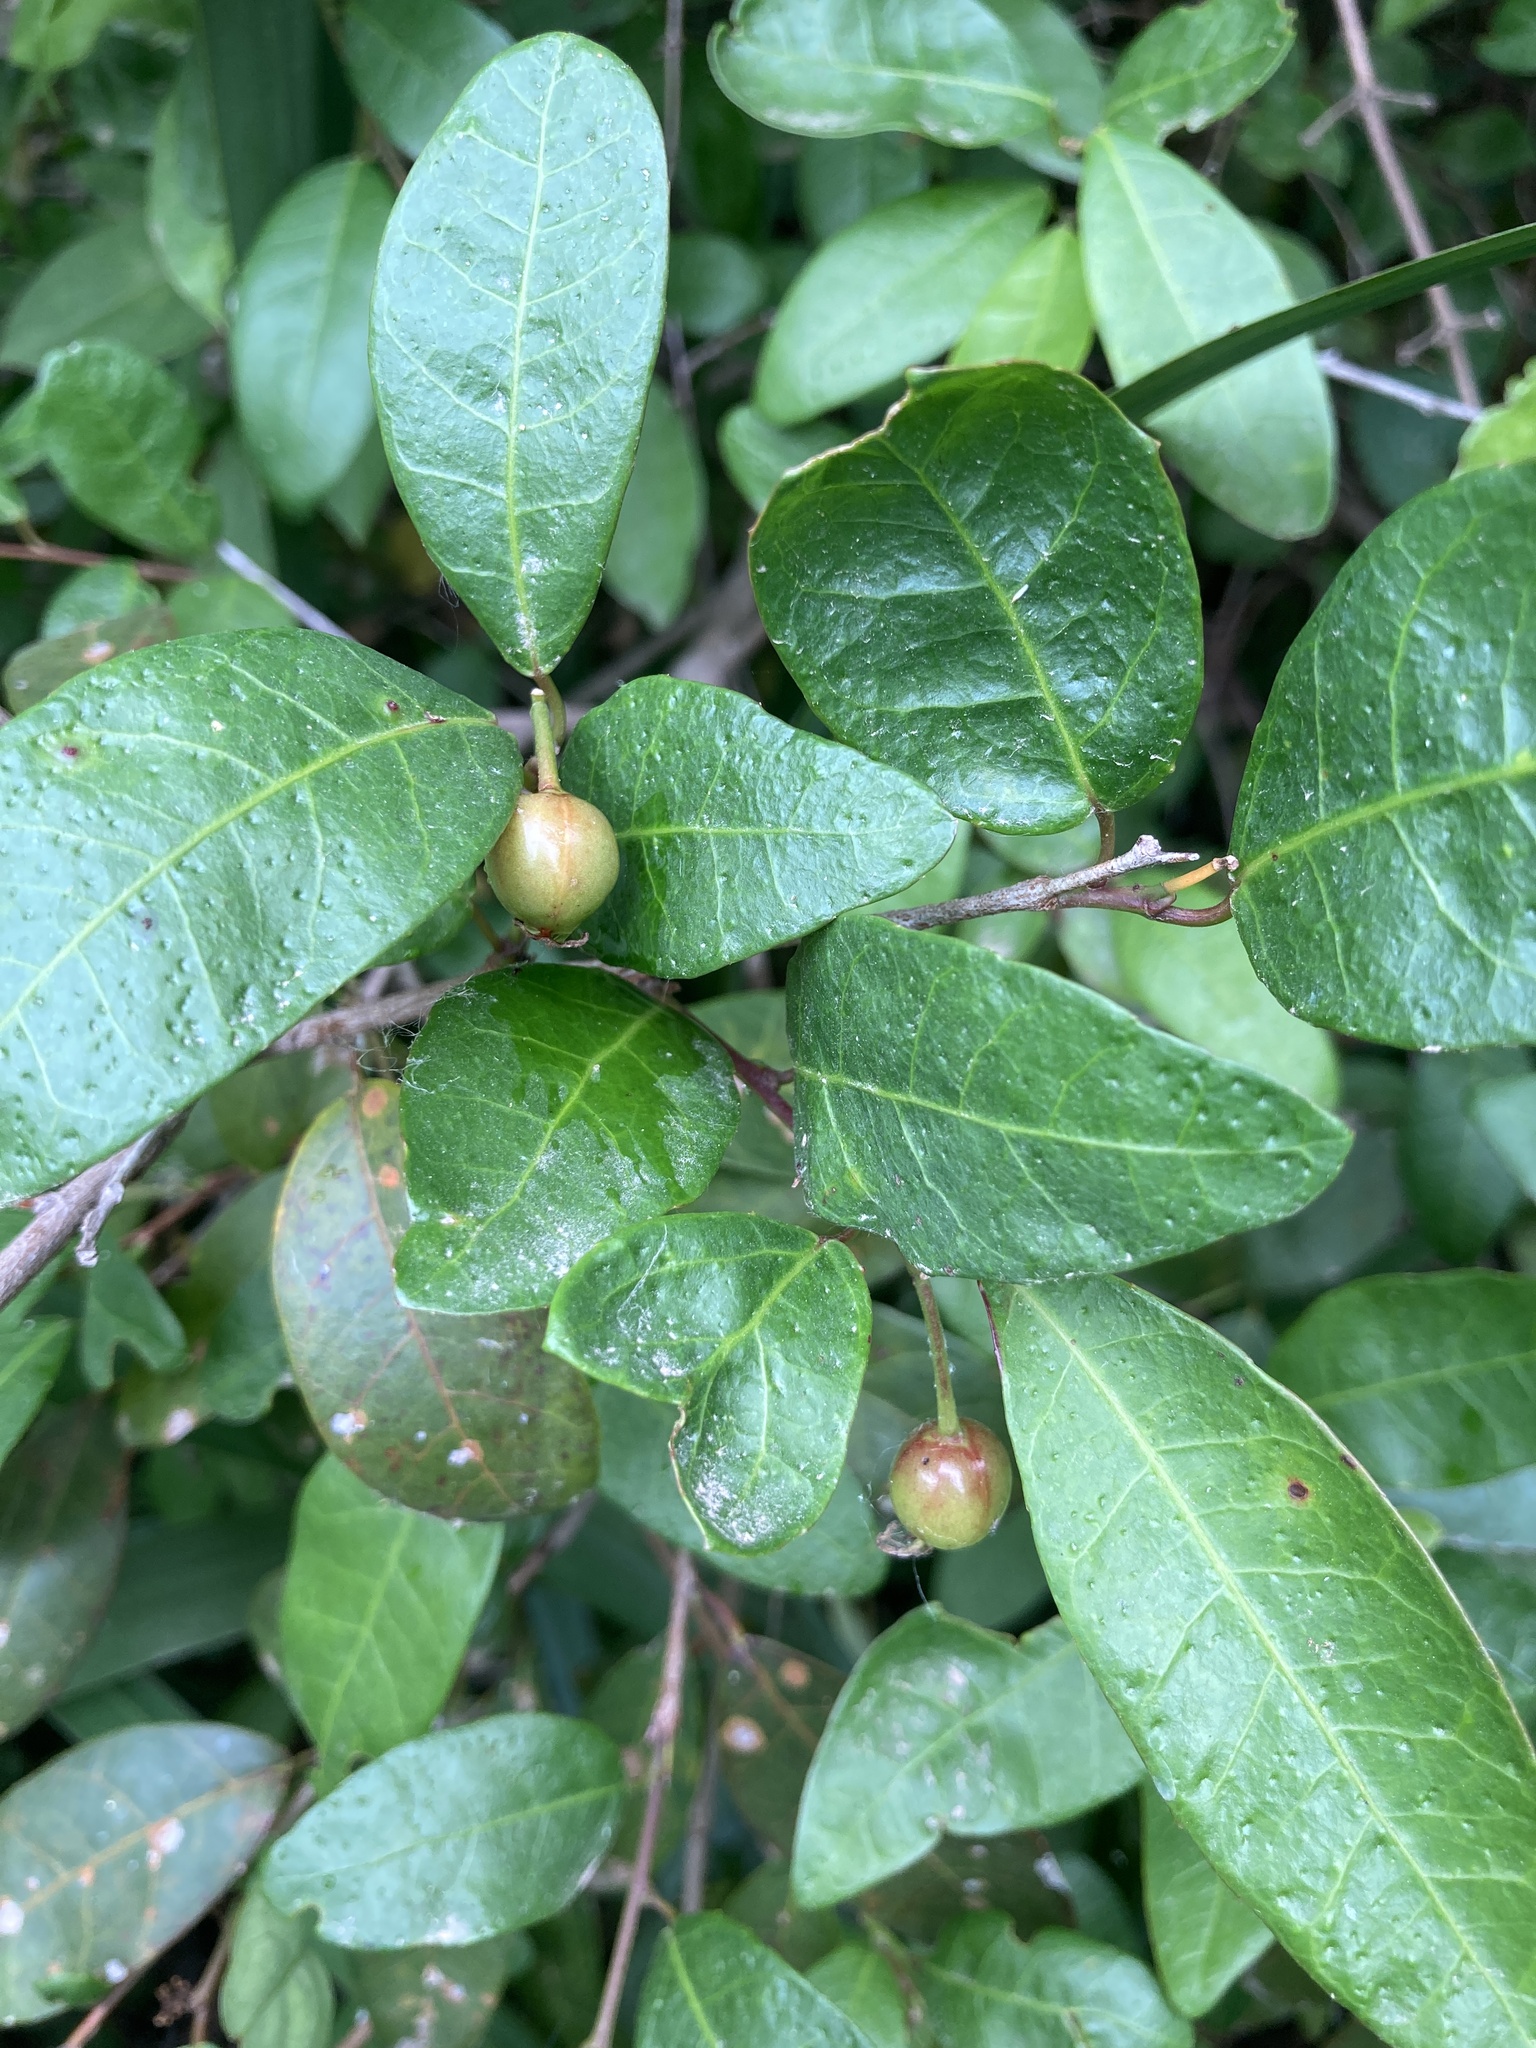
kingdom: Plantae
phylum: Tracheophyta
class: Magnoliopsida
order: Malpighiales
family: Euphorbiaceae
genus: Sebastiania
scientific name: Sebastiania klotzschiana
